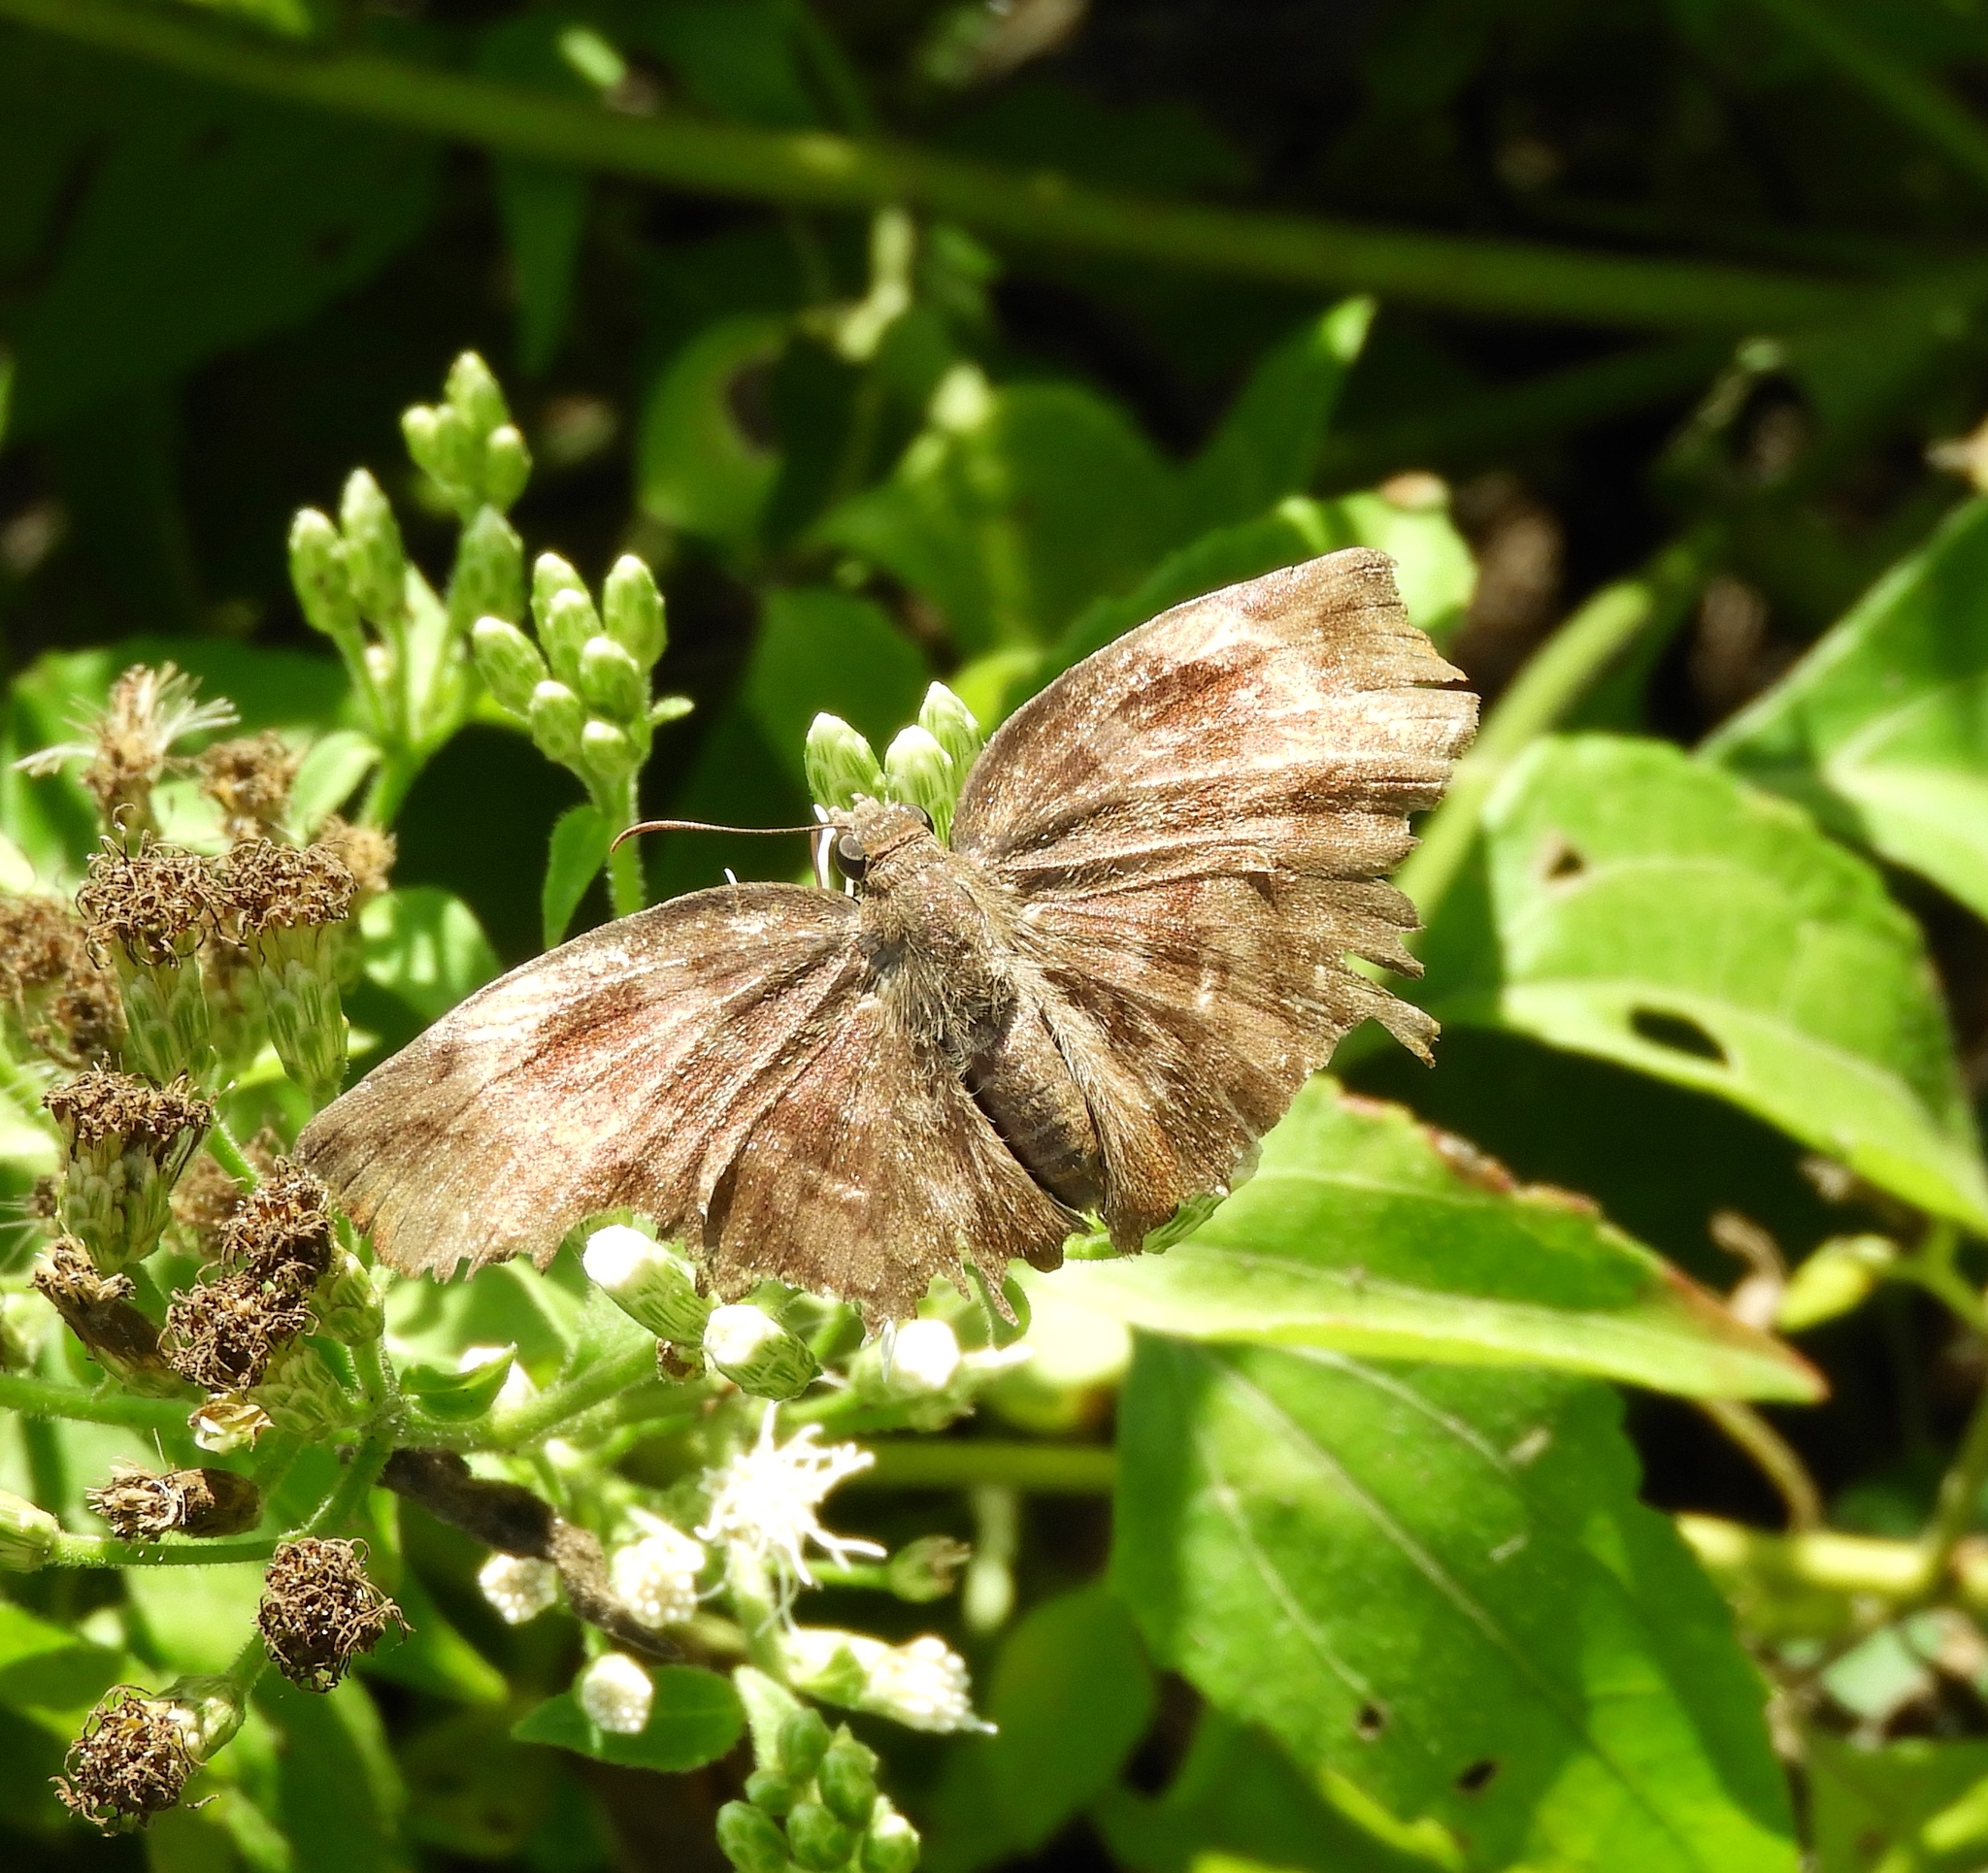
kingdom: Animalia
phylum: Arthropoda
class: Insecta
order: Lepidoptera
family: Hesperiidae
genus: Achlyodes
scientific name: Achlyodes thraso
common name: Sickle-winged skipper
